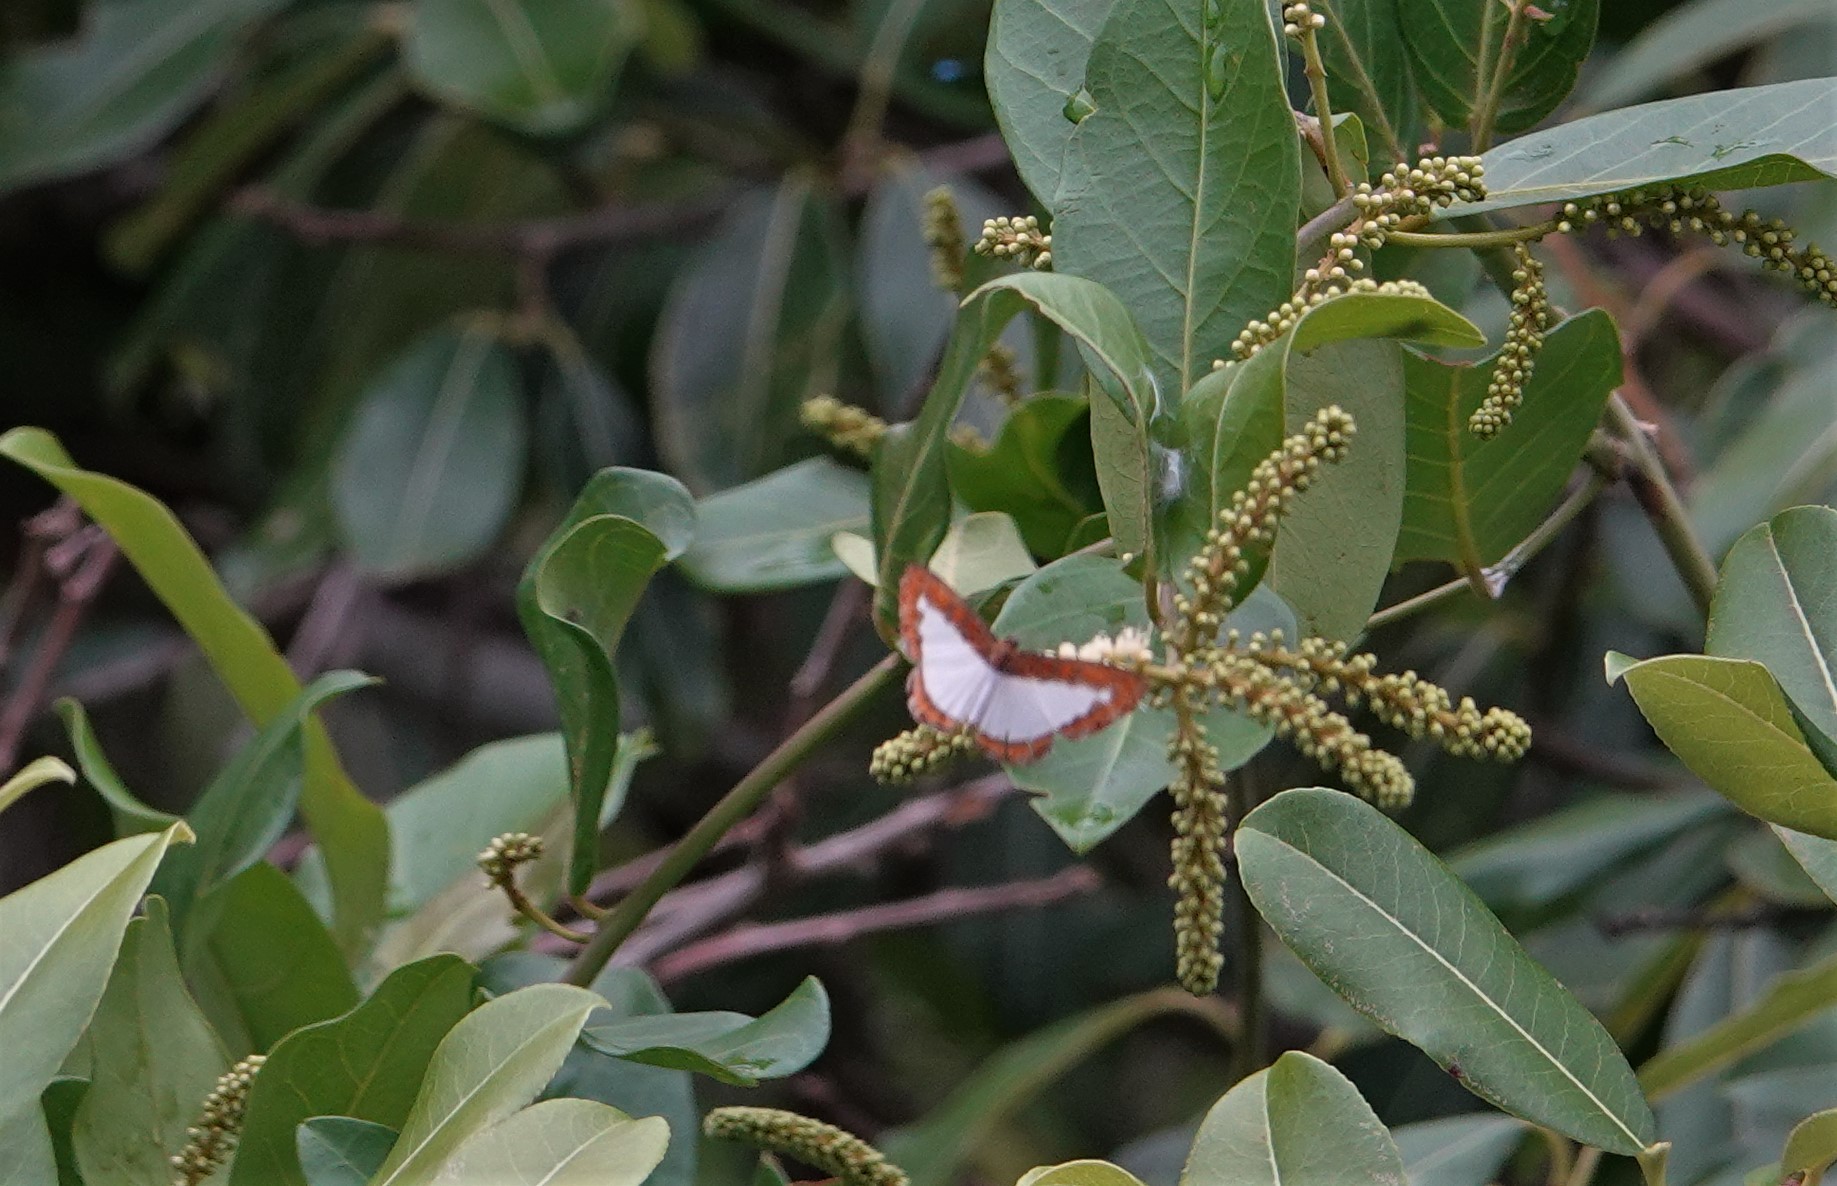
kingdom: Animalia
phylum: Arthropoda
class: Insecta
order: Lepidoptera
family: Riodinidae
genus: Nymula
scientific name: Nymula calyce
